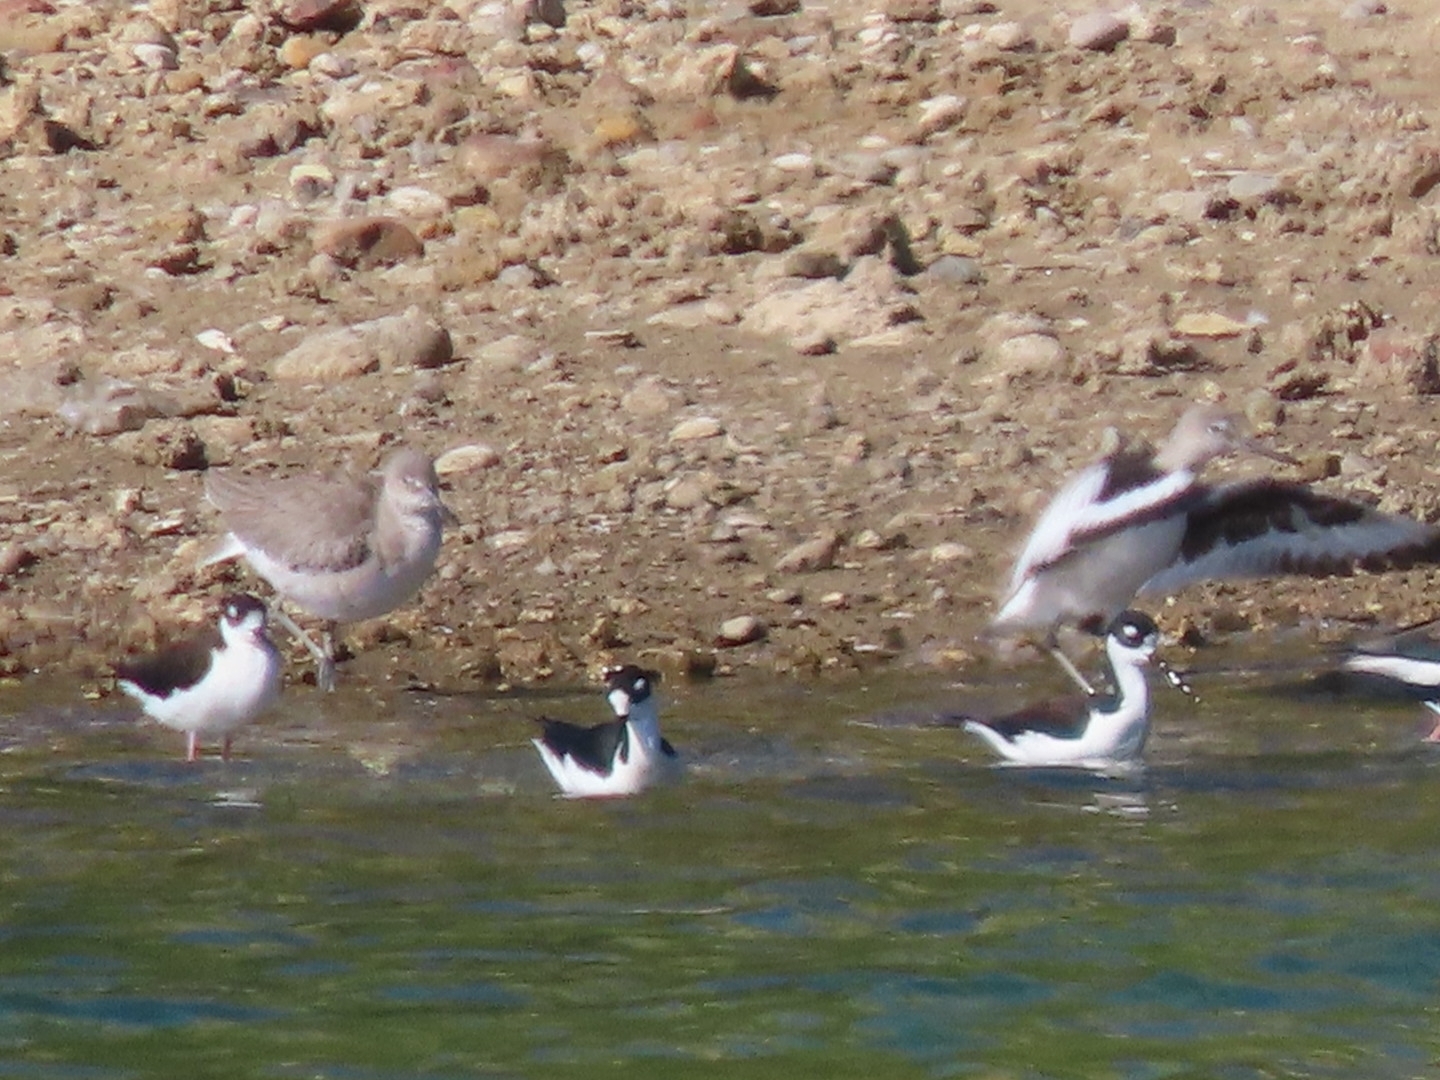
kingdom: Animalia
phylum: Chordata
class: Aves
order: Charadriiformes
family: Recurvirostridae
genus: Himantopus
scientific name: Himantopus mexicanus
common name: Black-necked stilt
